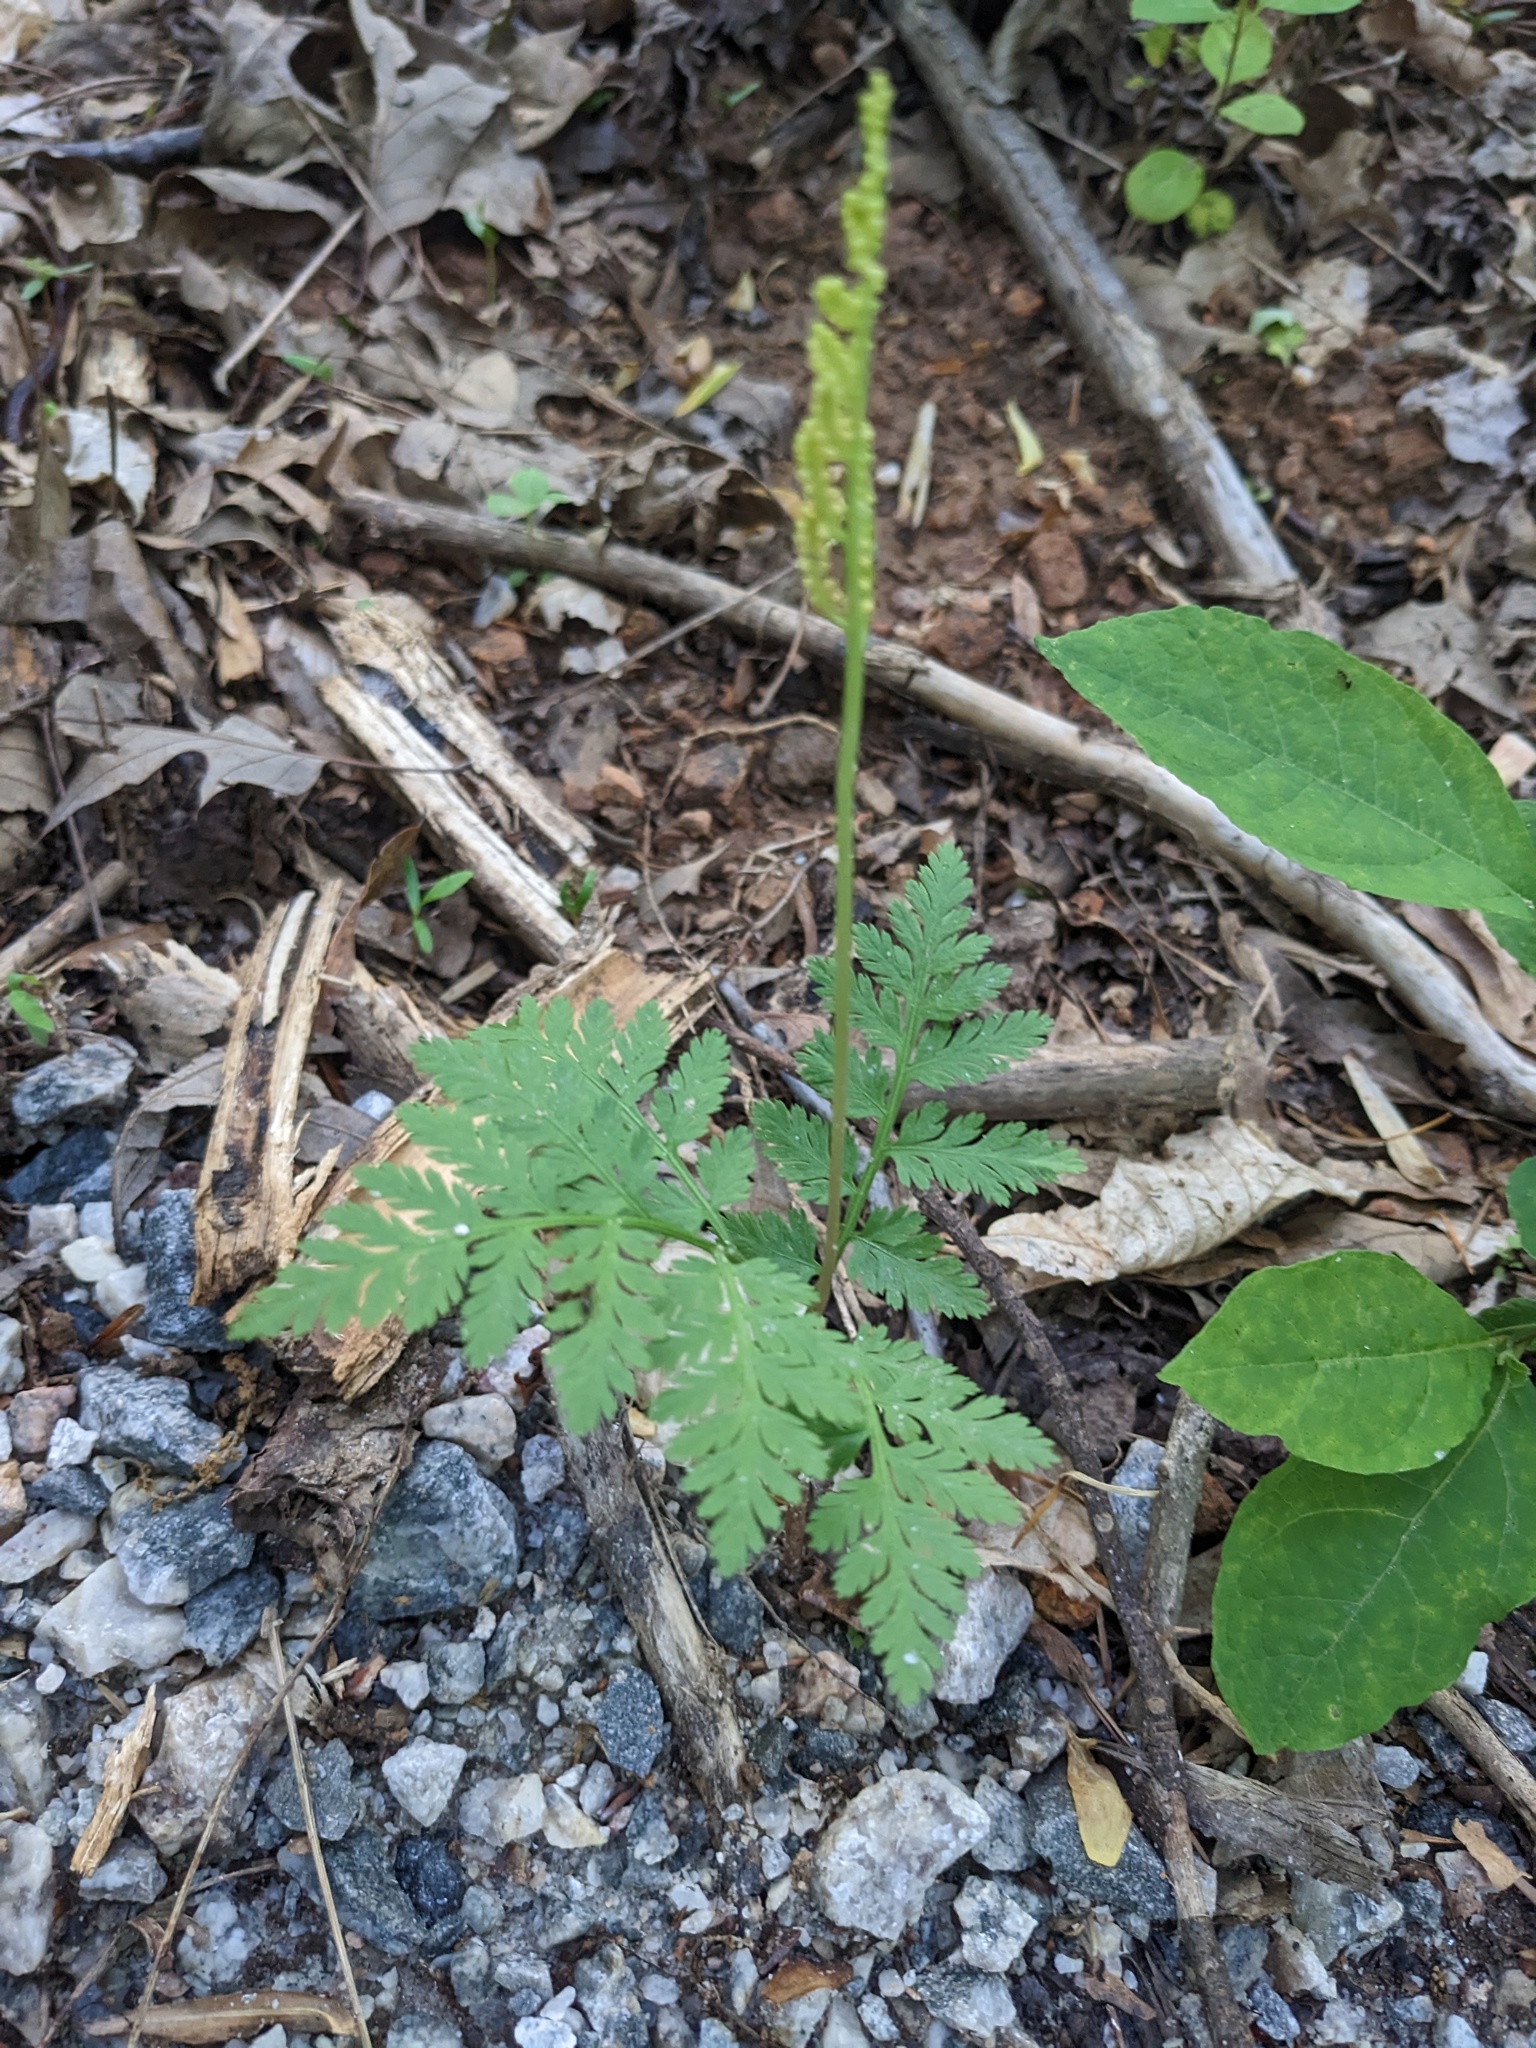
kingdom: Plantae
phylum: Tracheophyta
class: Polypodiopsida
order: Ophioglossales
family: Ophioglossaceae
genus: Botrypus
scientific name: Botrypus virginianus
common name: Common grapefern
